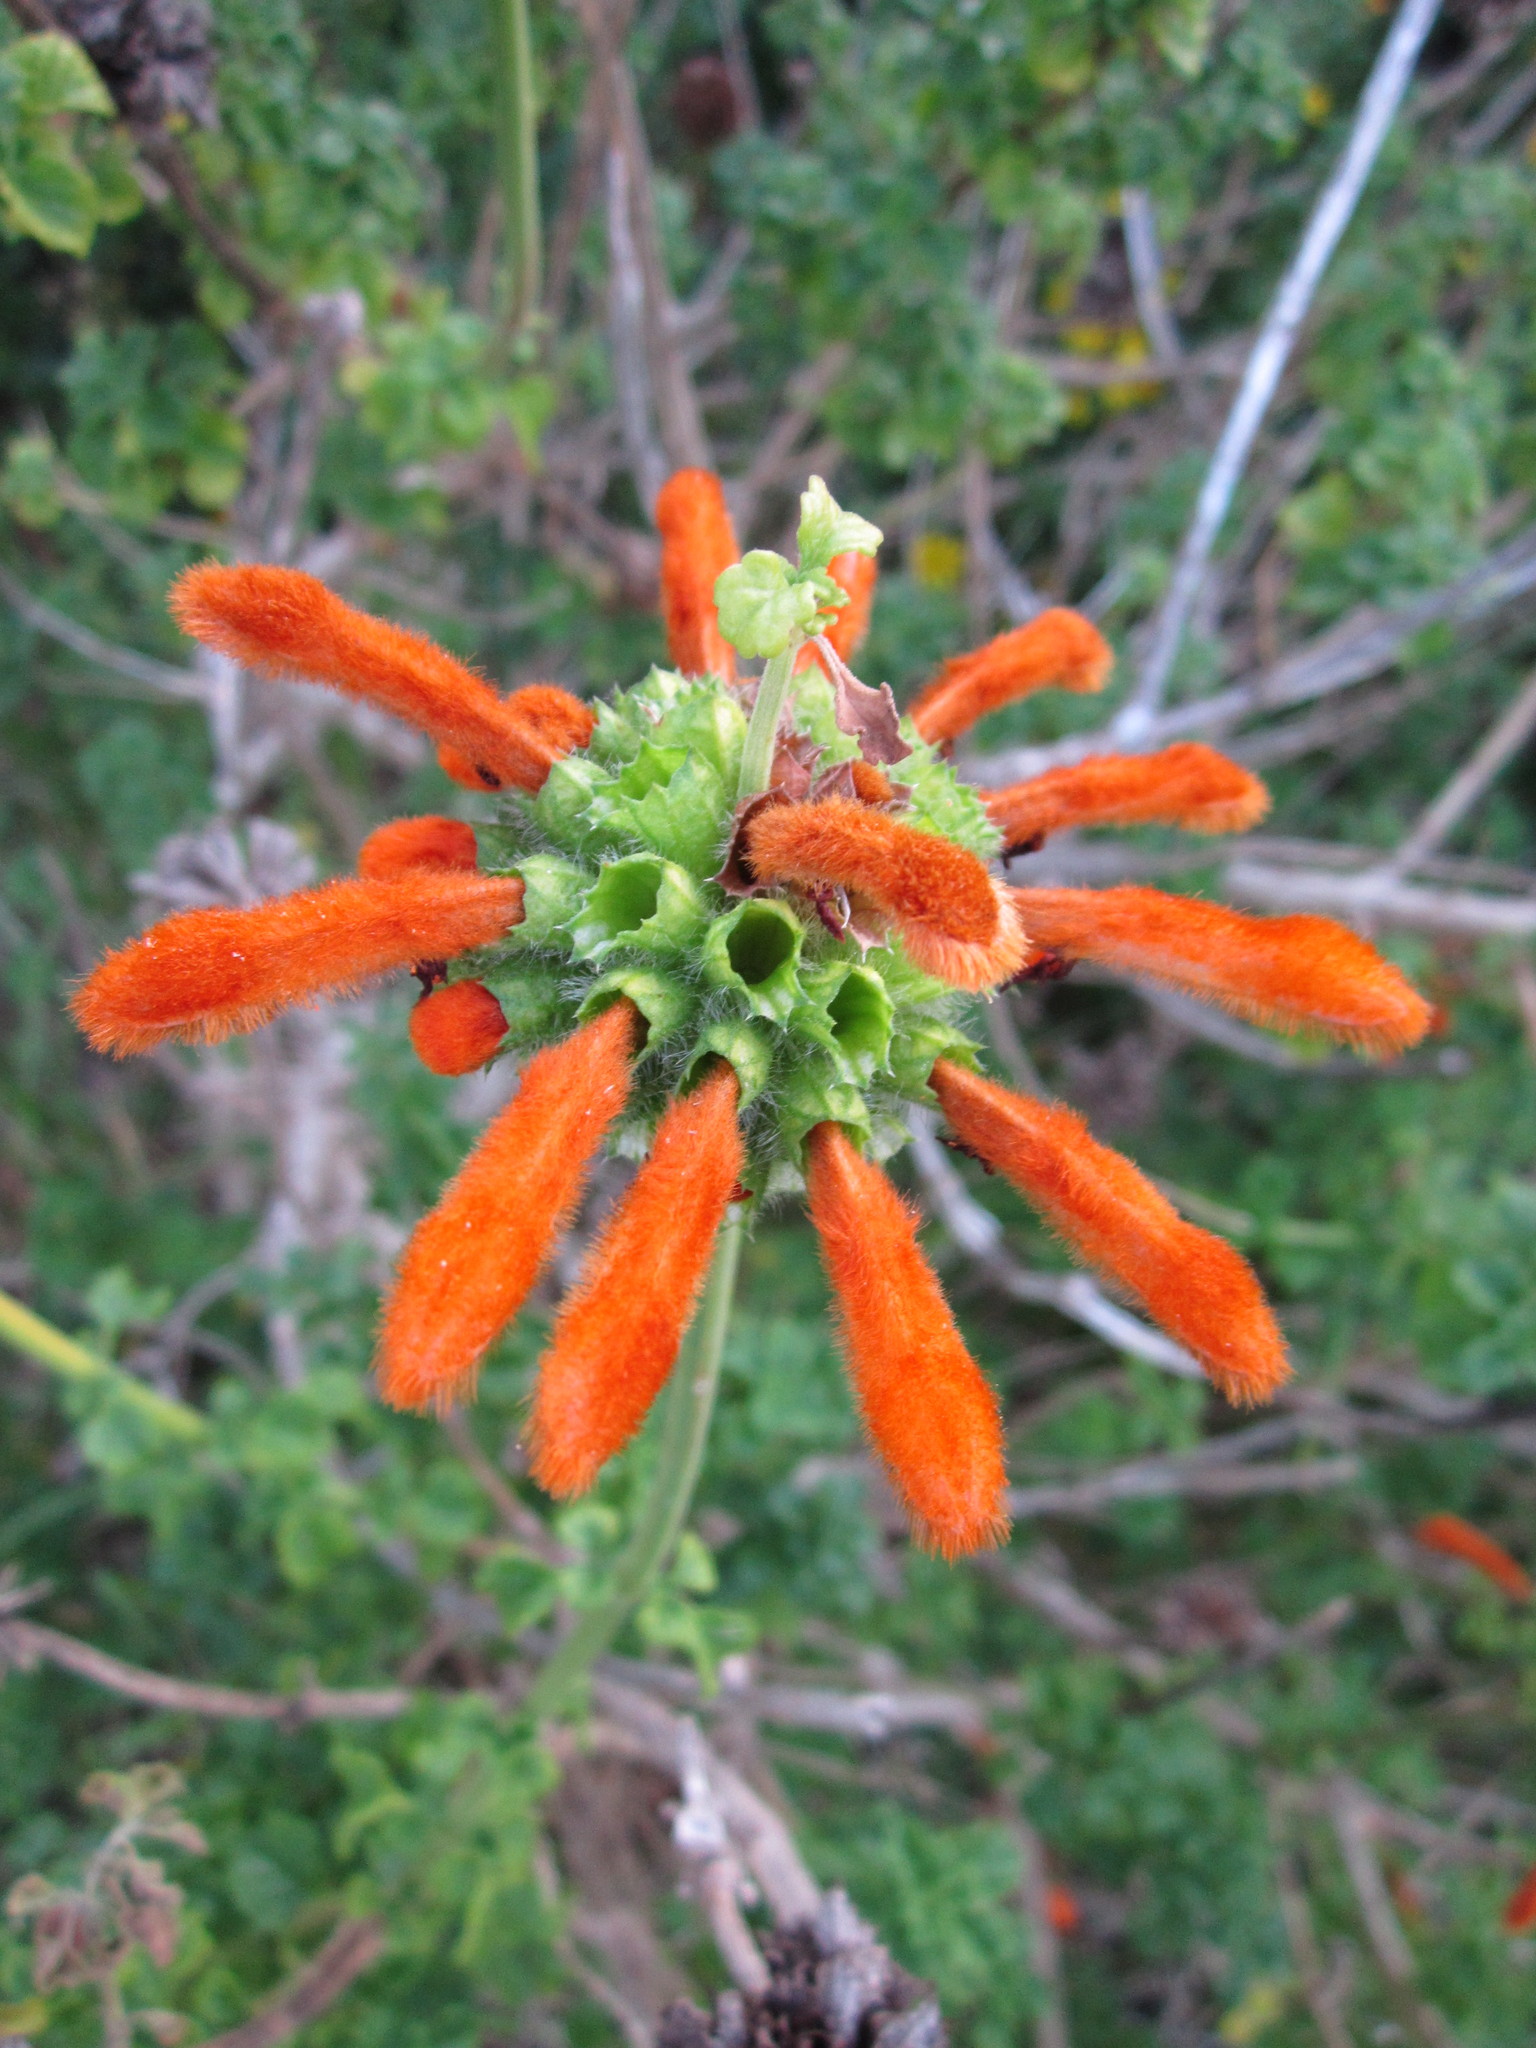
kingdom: Plantae
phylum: Tracheophyta
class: Magnoliopsida
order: Lamiales
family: Lamiaceae
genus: Leonotis
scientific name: Leonotis leonurus
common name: Lion's ear
